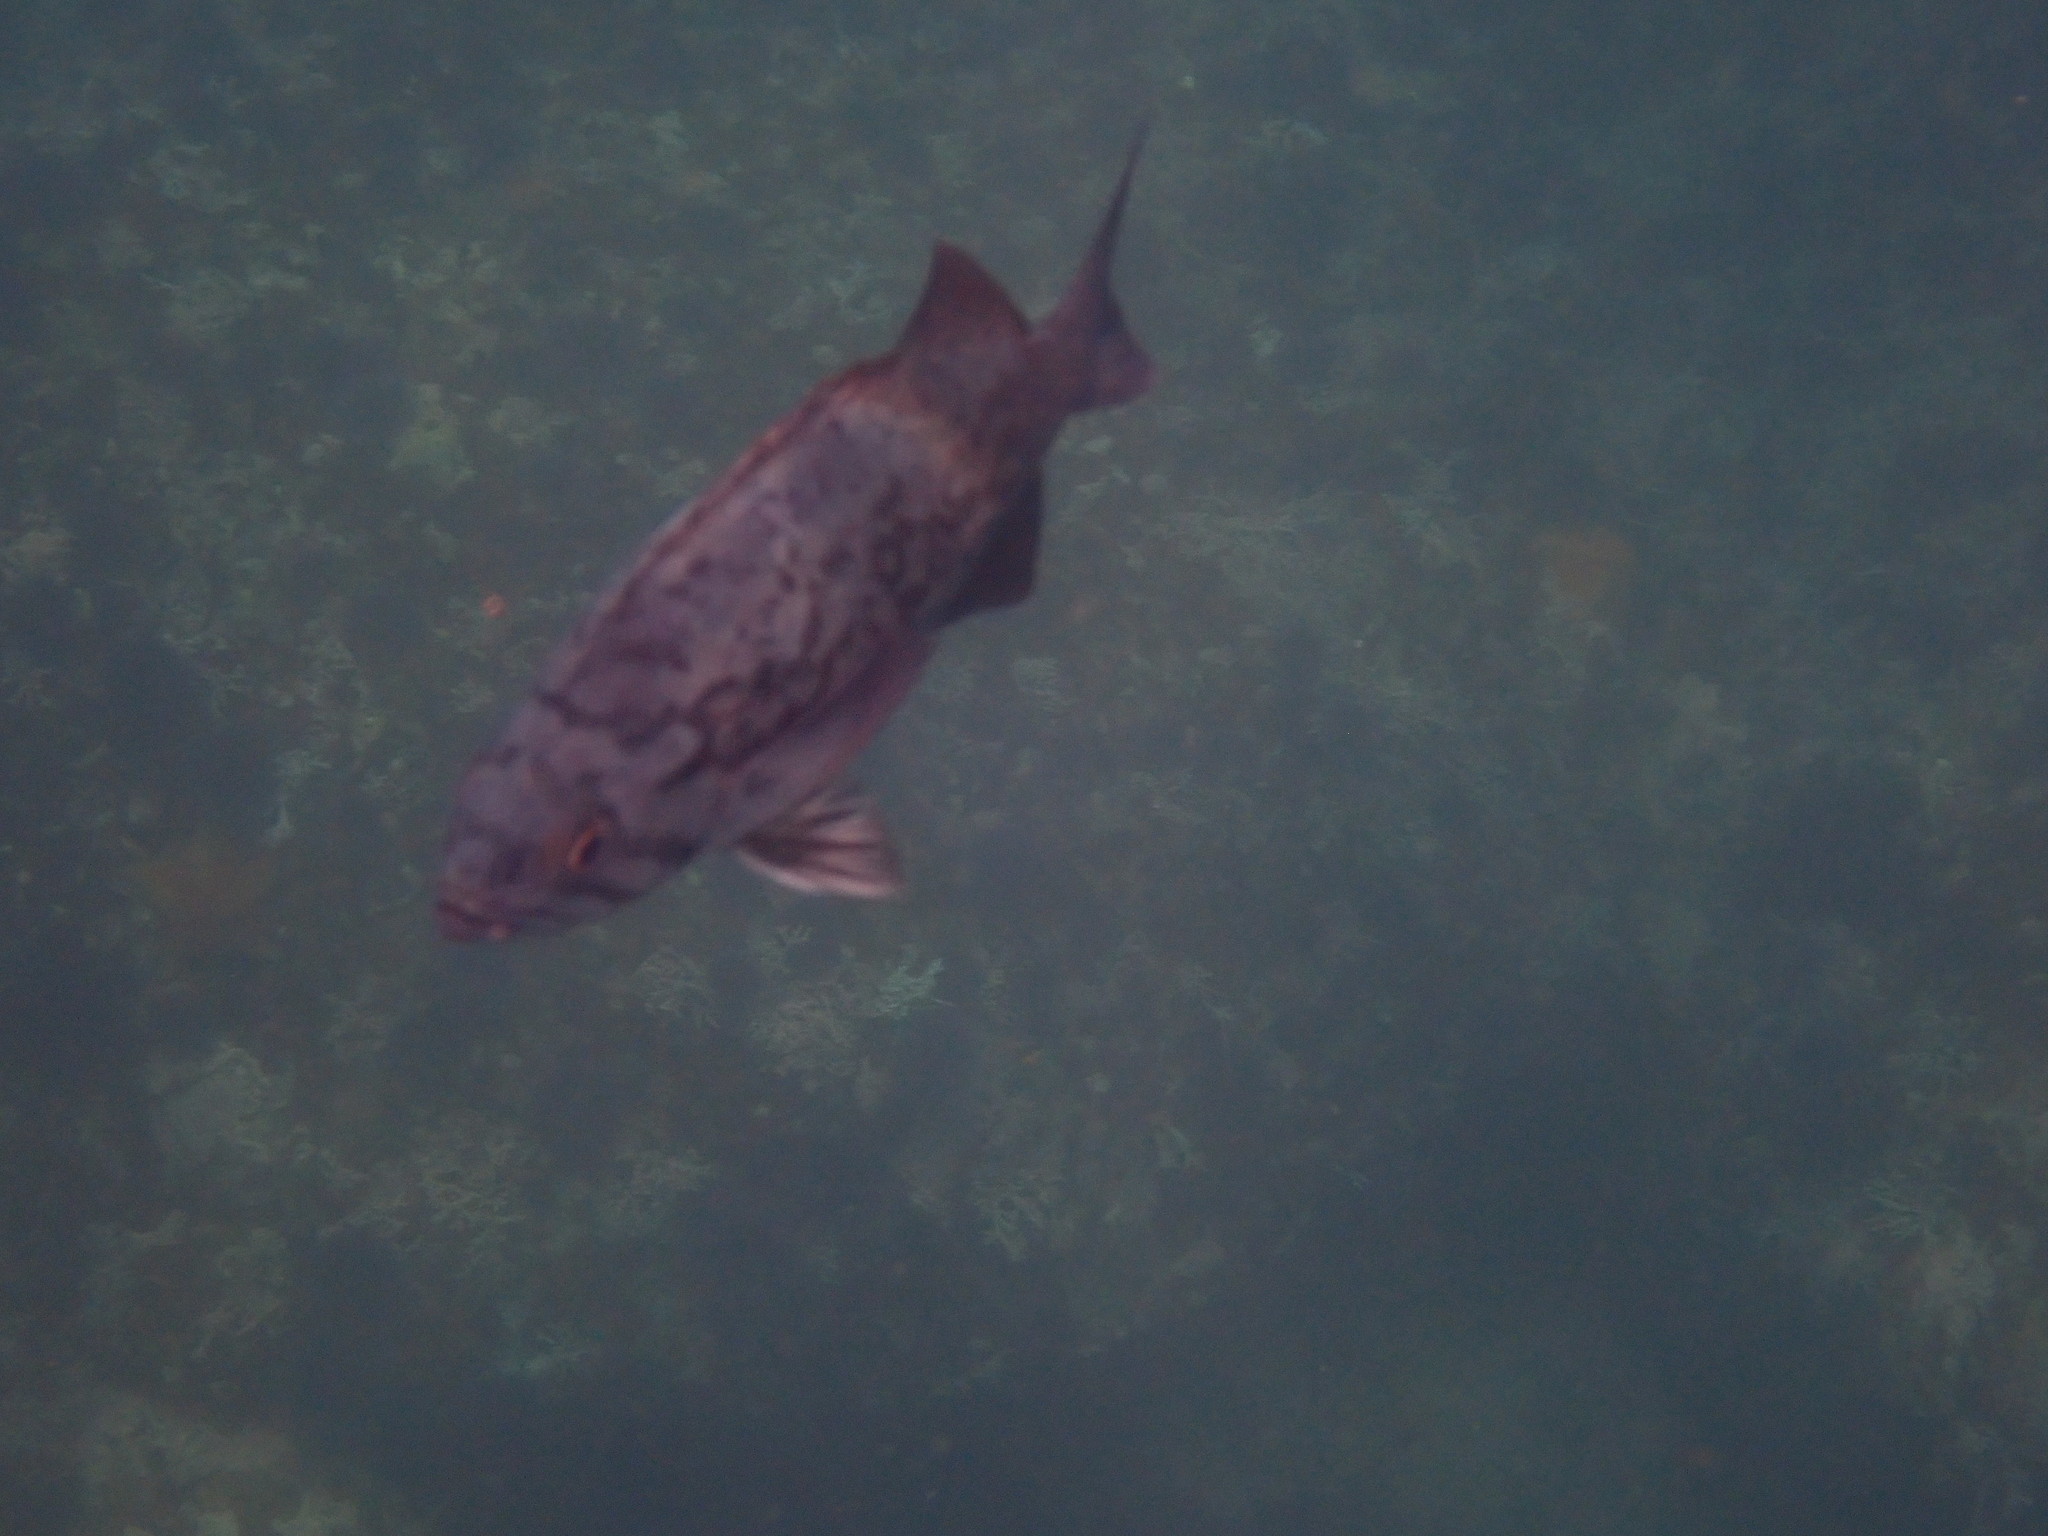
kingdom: Animalia
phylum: Chordata
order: Scorpaeniformes
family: Sebastidae
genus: Sebastes
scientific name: Sebastes mystinus
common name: Blue rockfish
